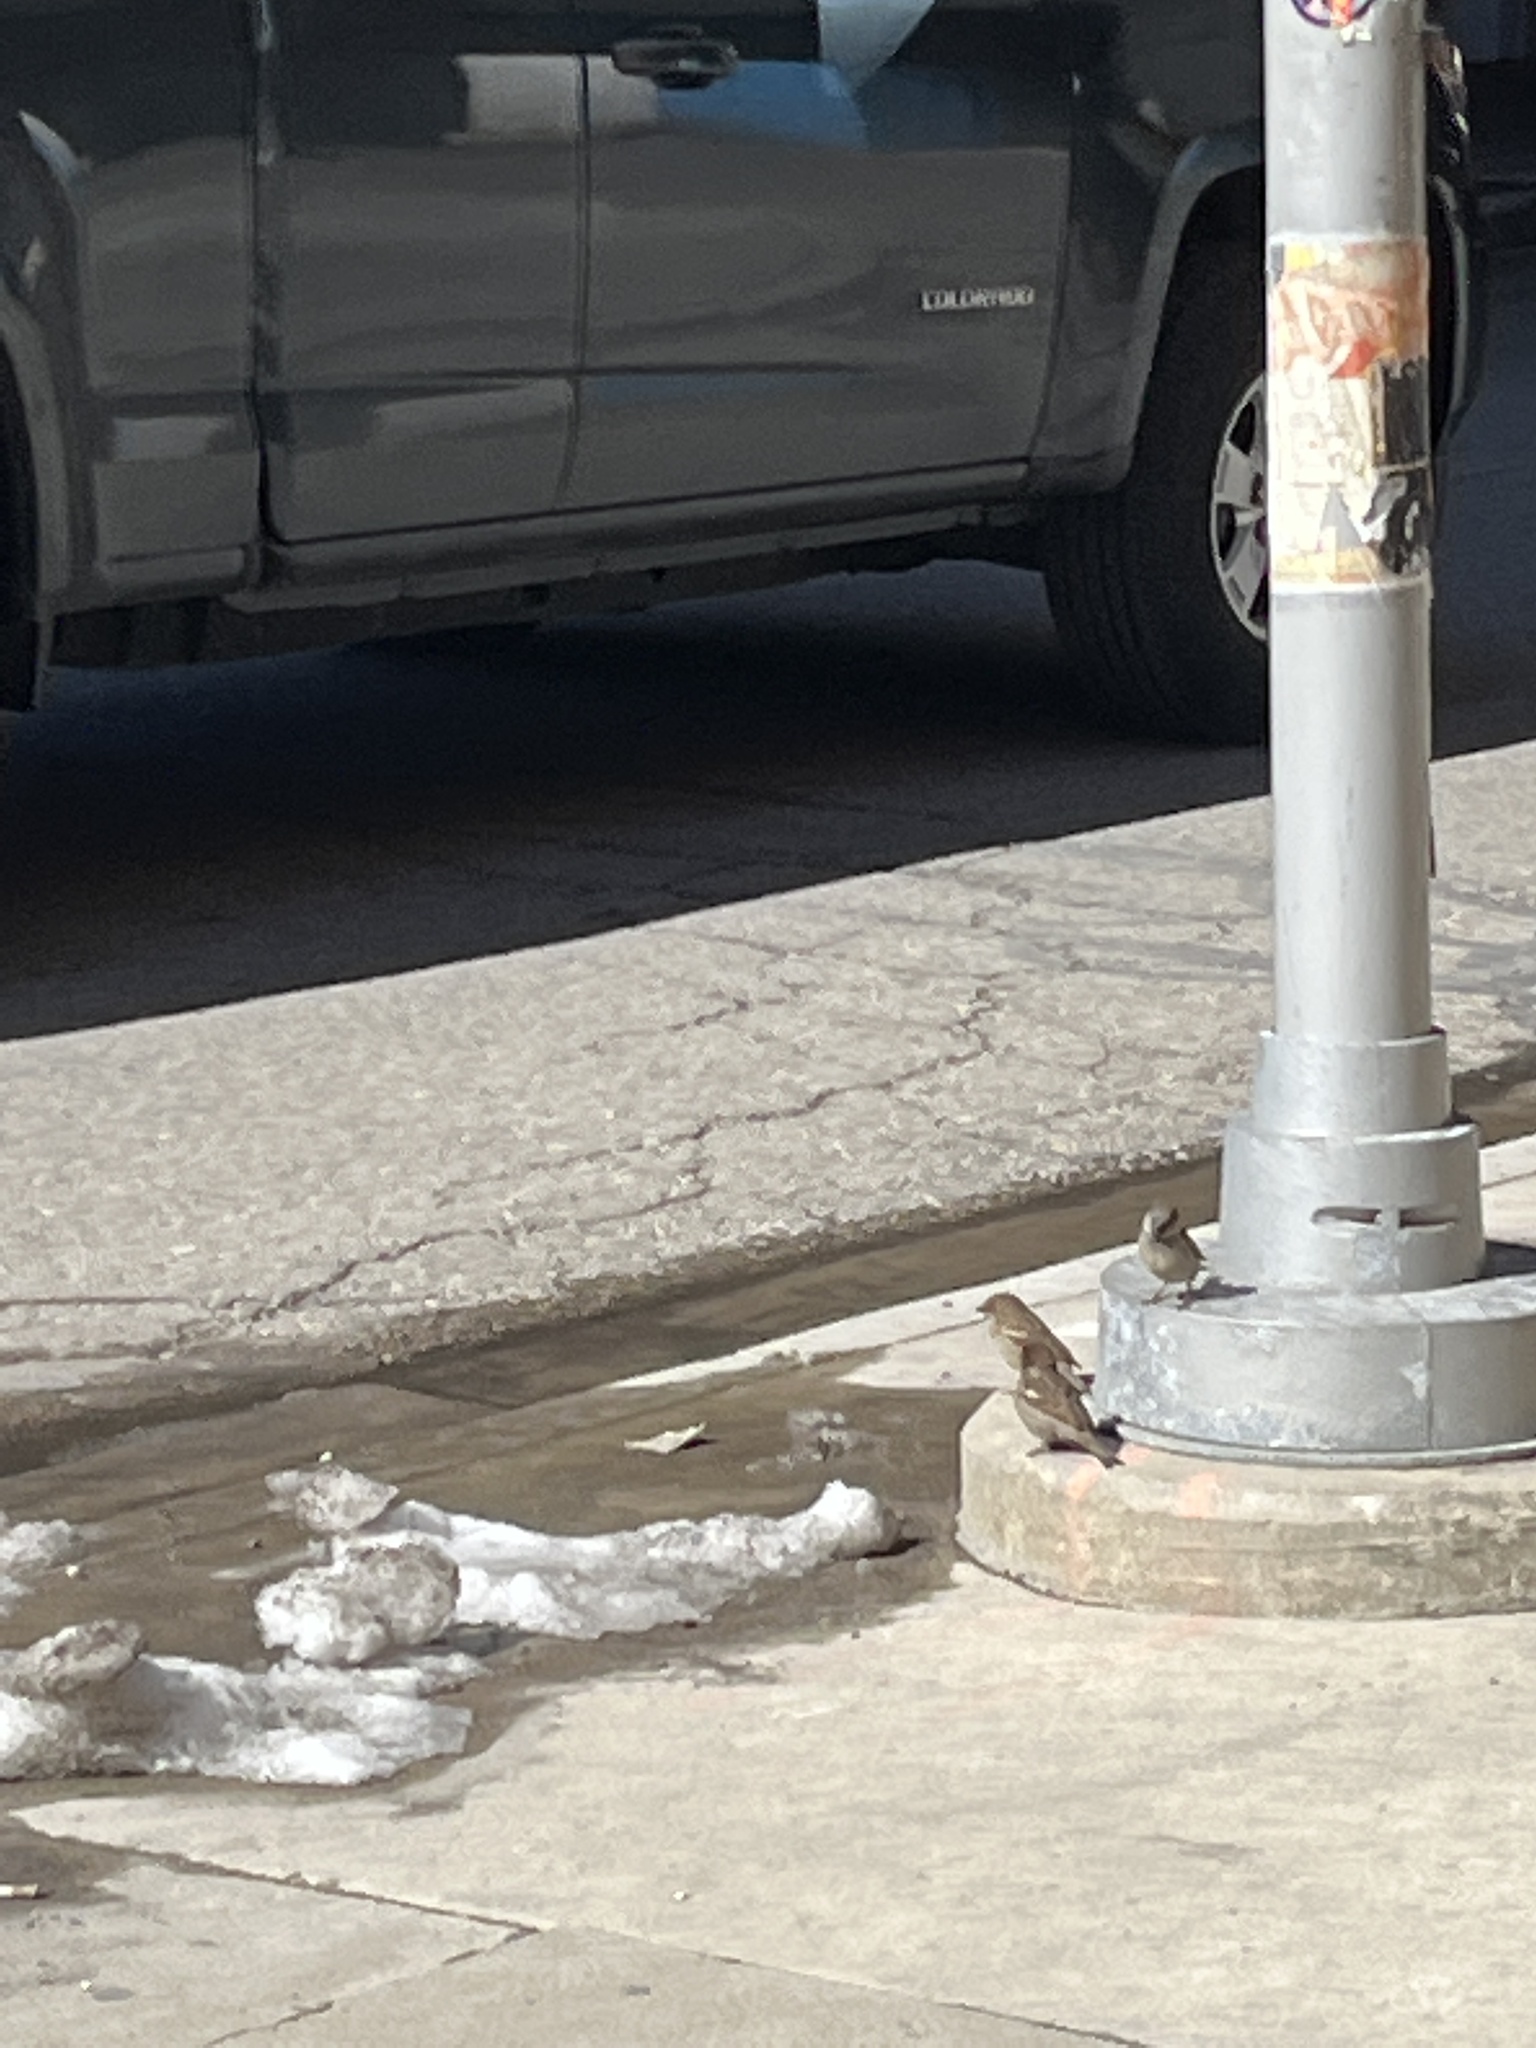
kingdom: Animalia
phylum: Chordata
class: Aves
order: Passeriformes
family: Passeridae
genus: Passer
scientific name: Passer domesticus
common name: House sparrow
